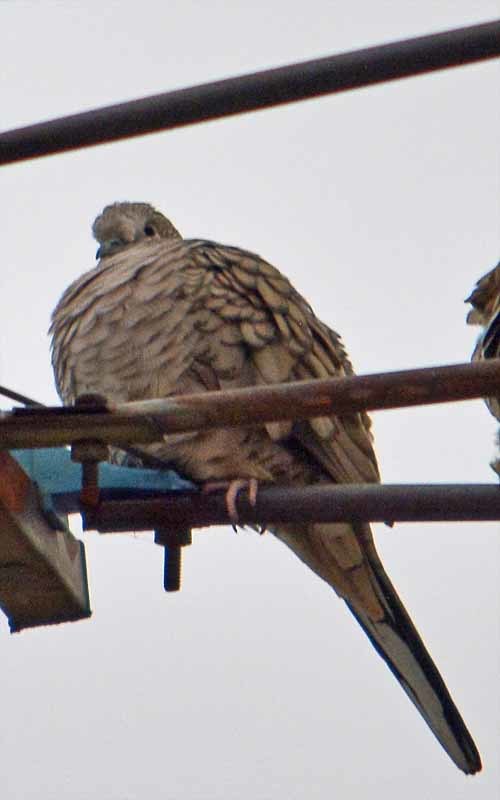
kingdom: Animalia
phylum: Chordata
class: Aves
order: Columbiformes
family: Columbidae
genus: Columbina
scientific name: Columbina inca
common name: Inca dove
